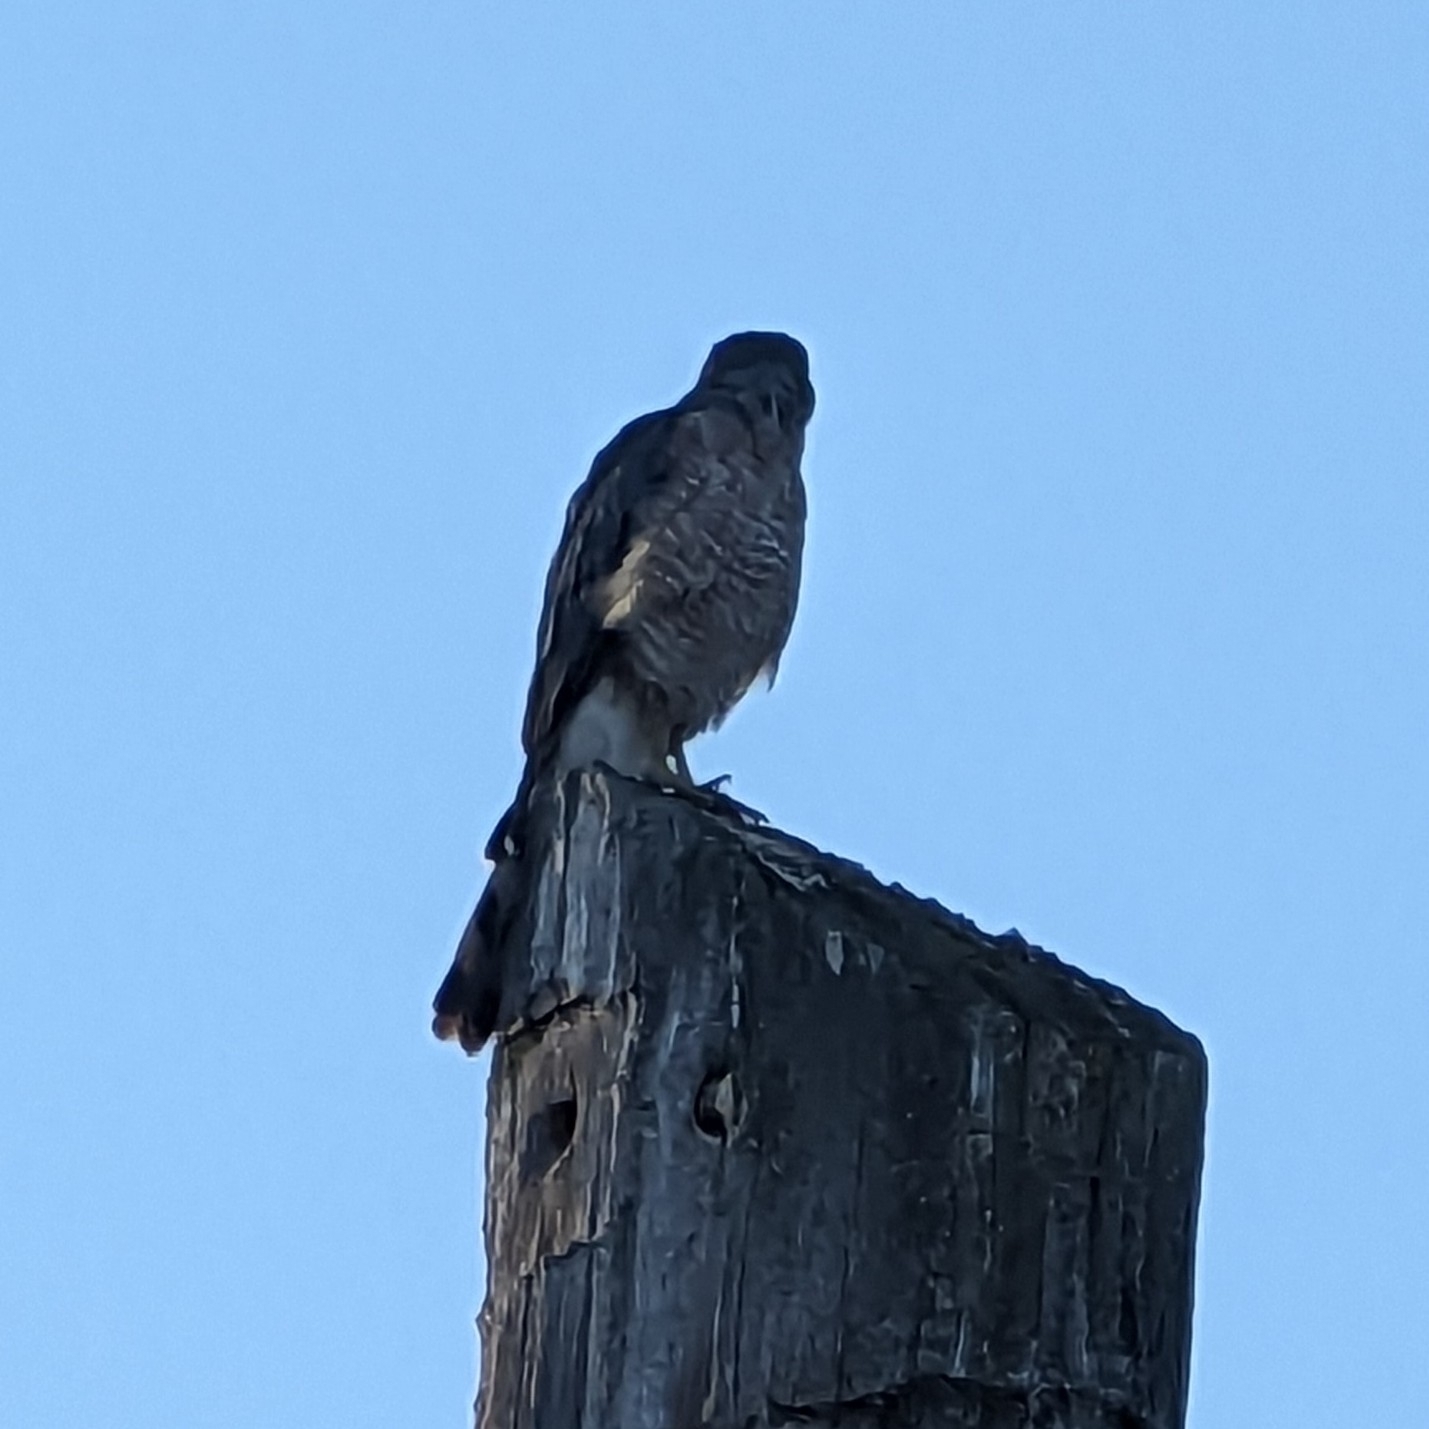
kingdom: Animalia
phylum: Chordata
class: Aves
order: Accipitriformes
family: Accipitridae
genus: Accipiter
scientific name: Accipiter cooperii
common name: Cooper's hawk
